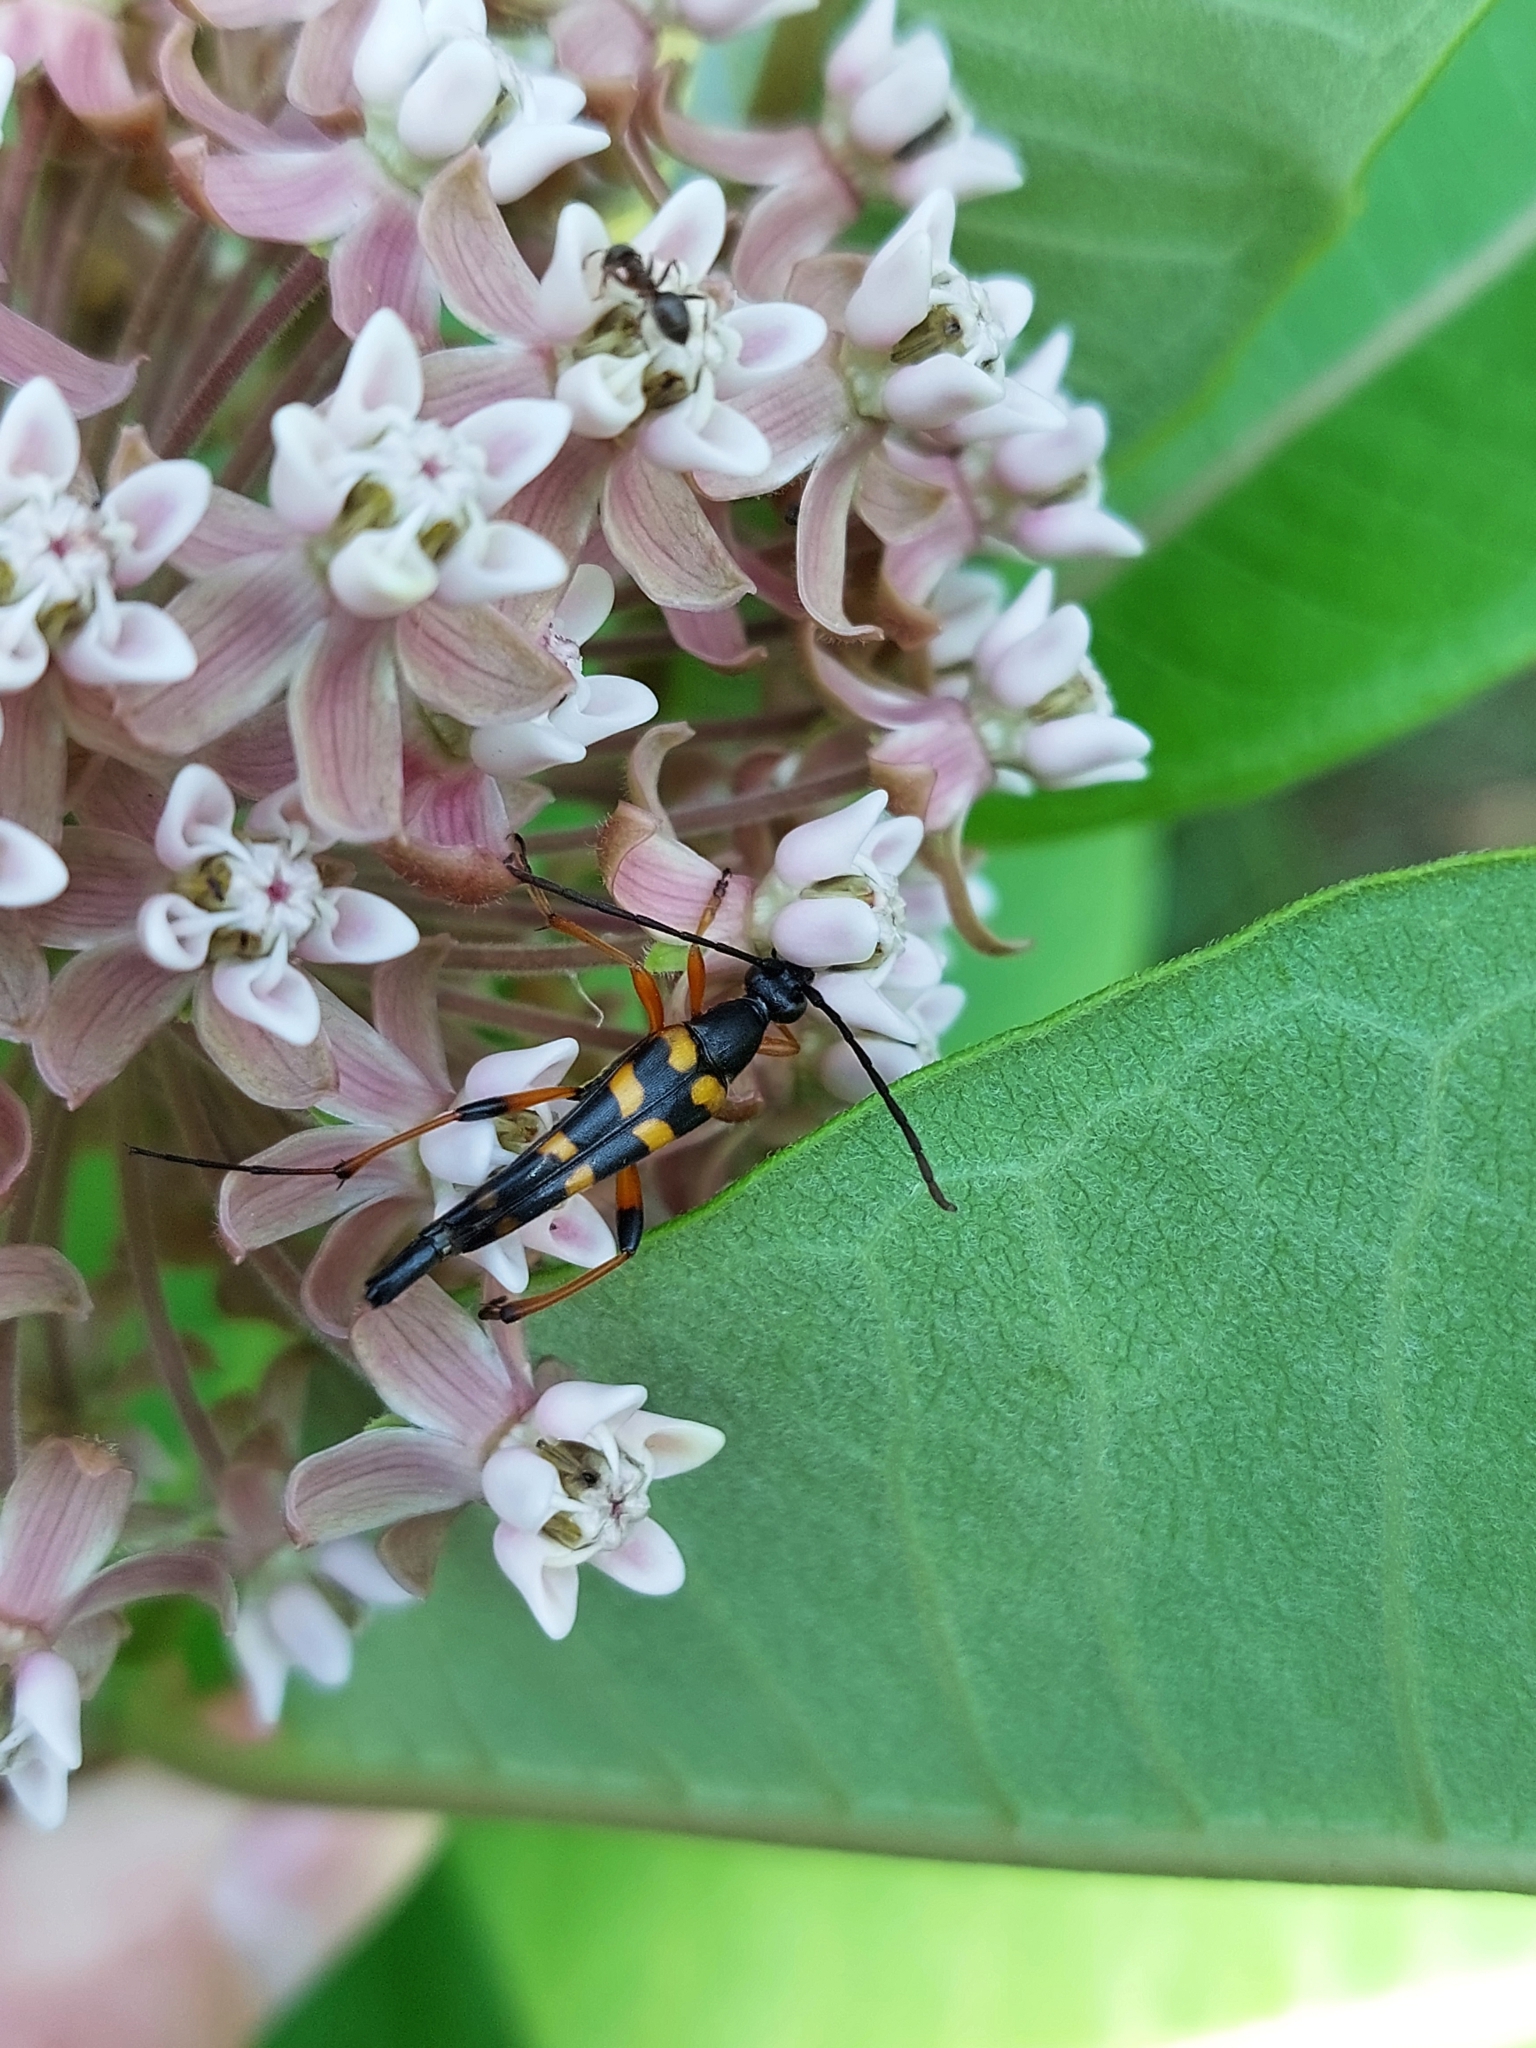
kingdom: Animalia
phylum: Arthropoda
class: Insecta
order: Coleoptera
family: Cerambycidae
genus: Strangalia
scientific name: Strangalia attenuata
